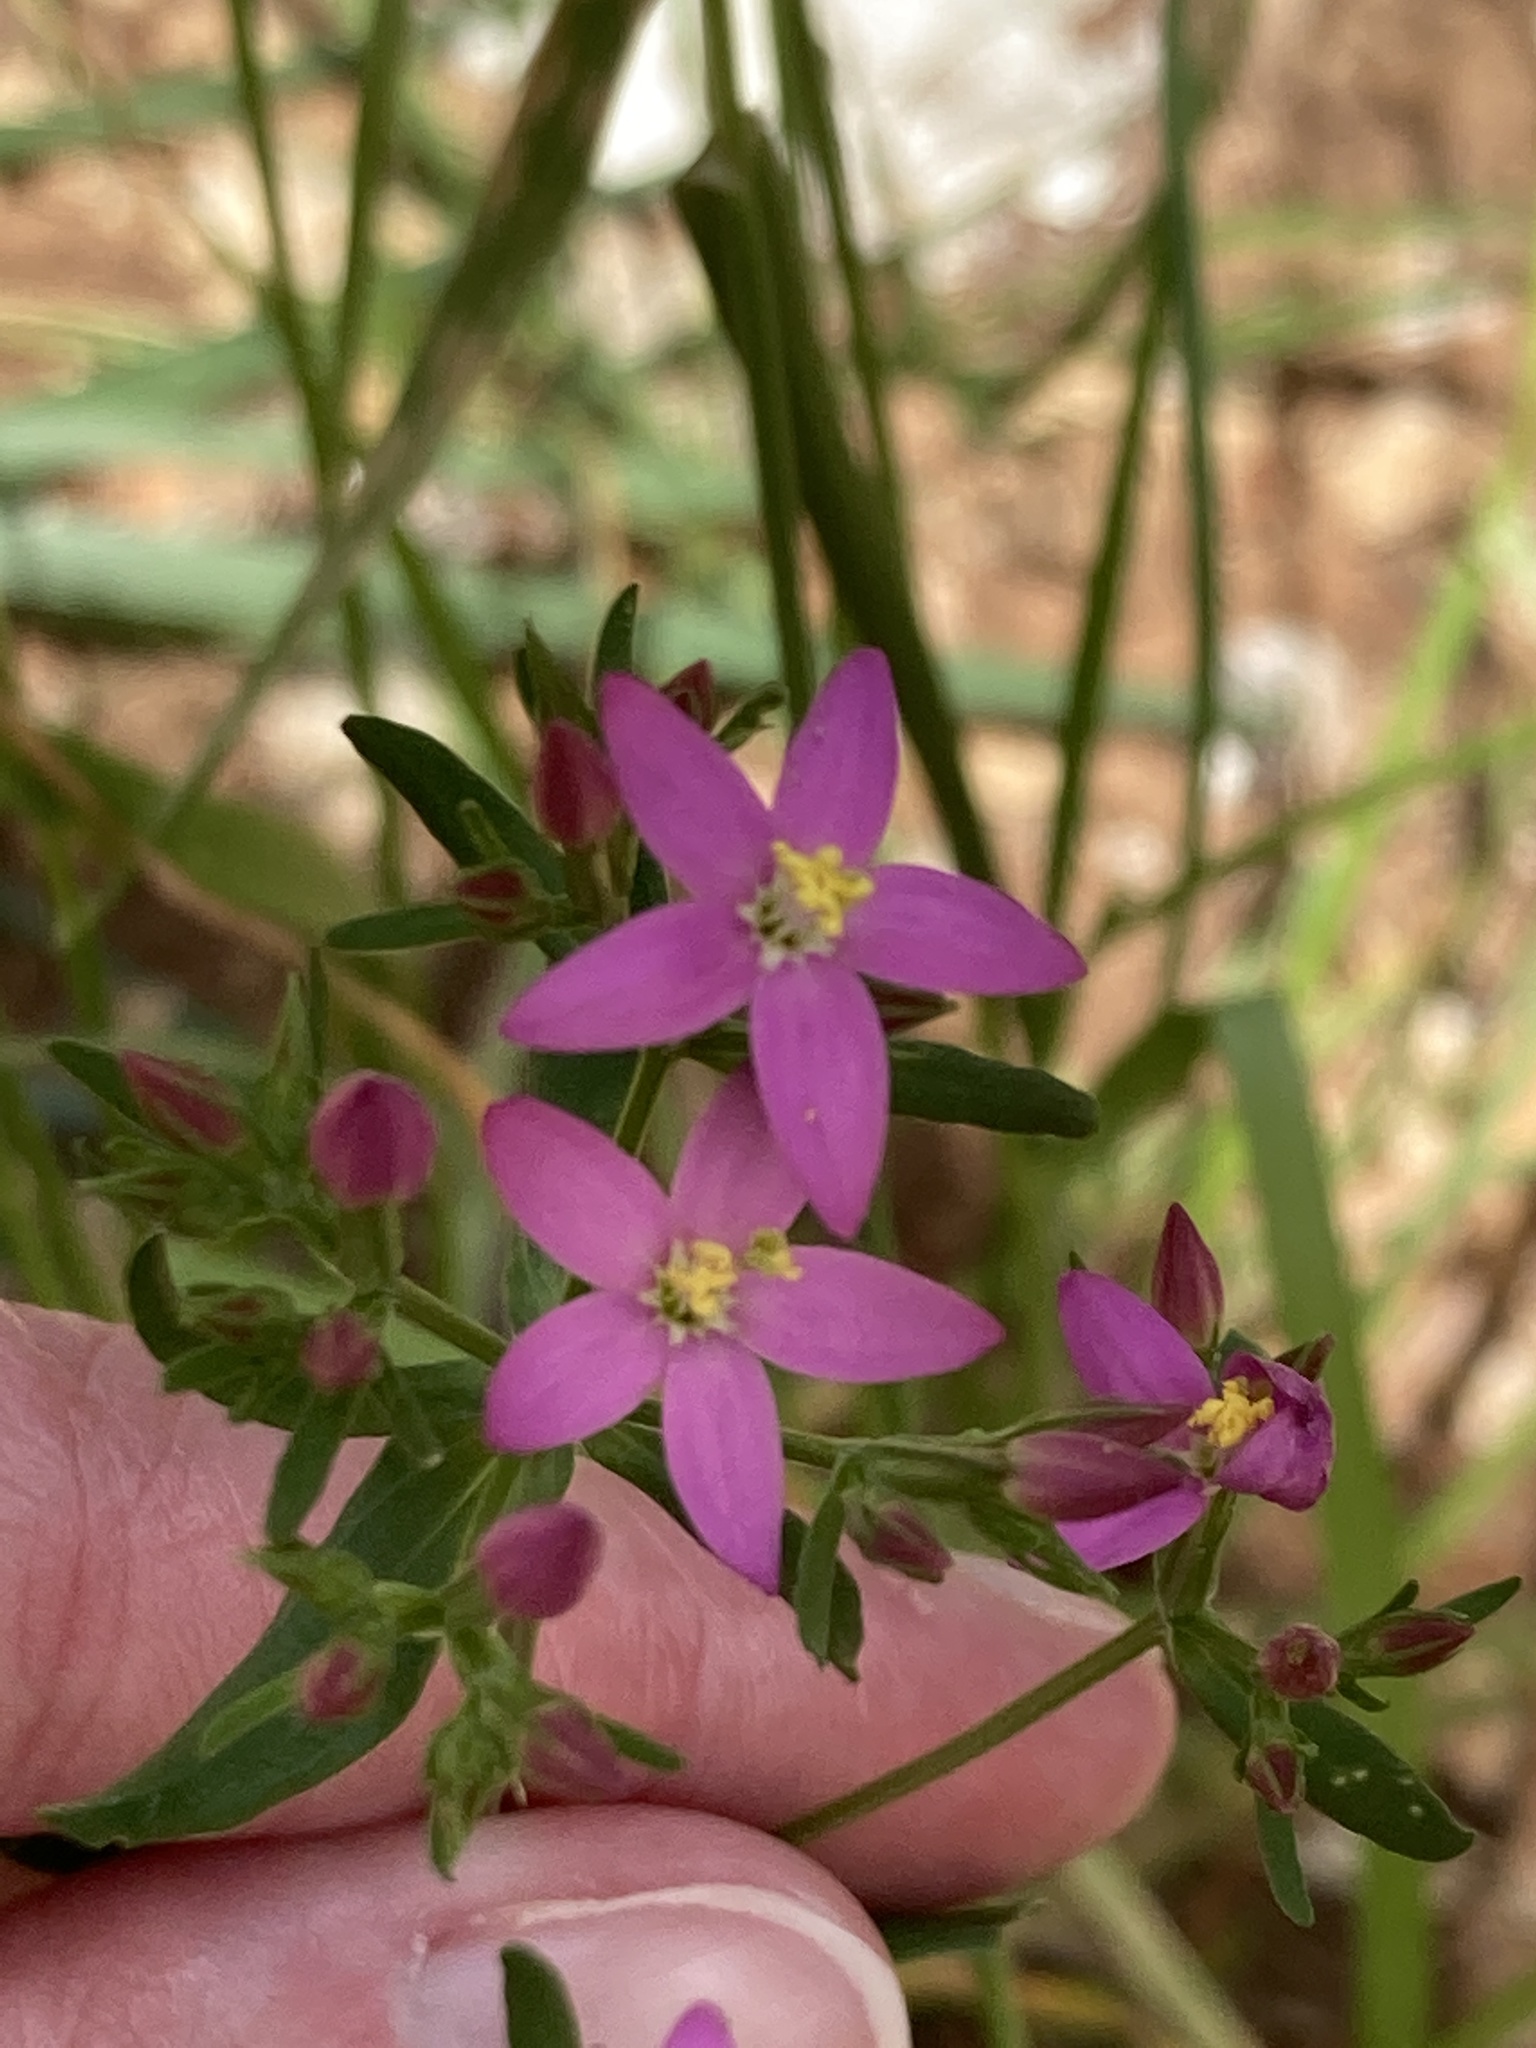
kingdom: Plantae
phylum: Tracheophyta
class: Magnoliopsida
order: Gentianales
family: Gentianaceae
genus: Centaurium
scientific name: Centaurium erythraea
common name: Common centaury
